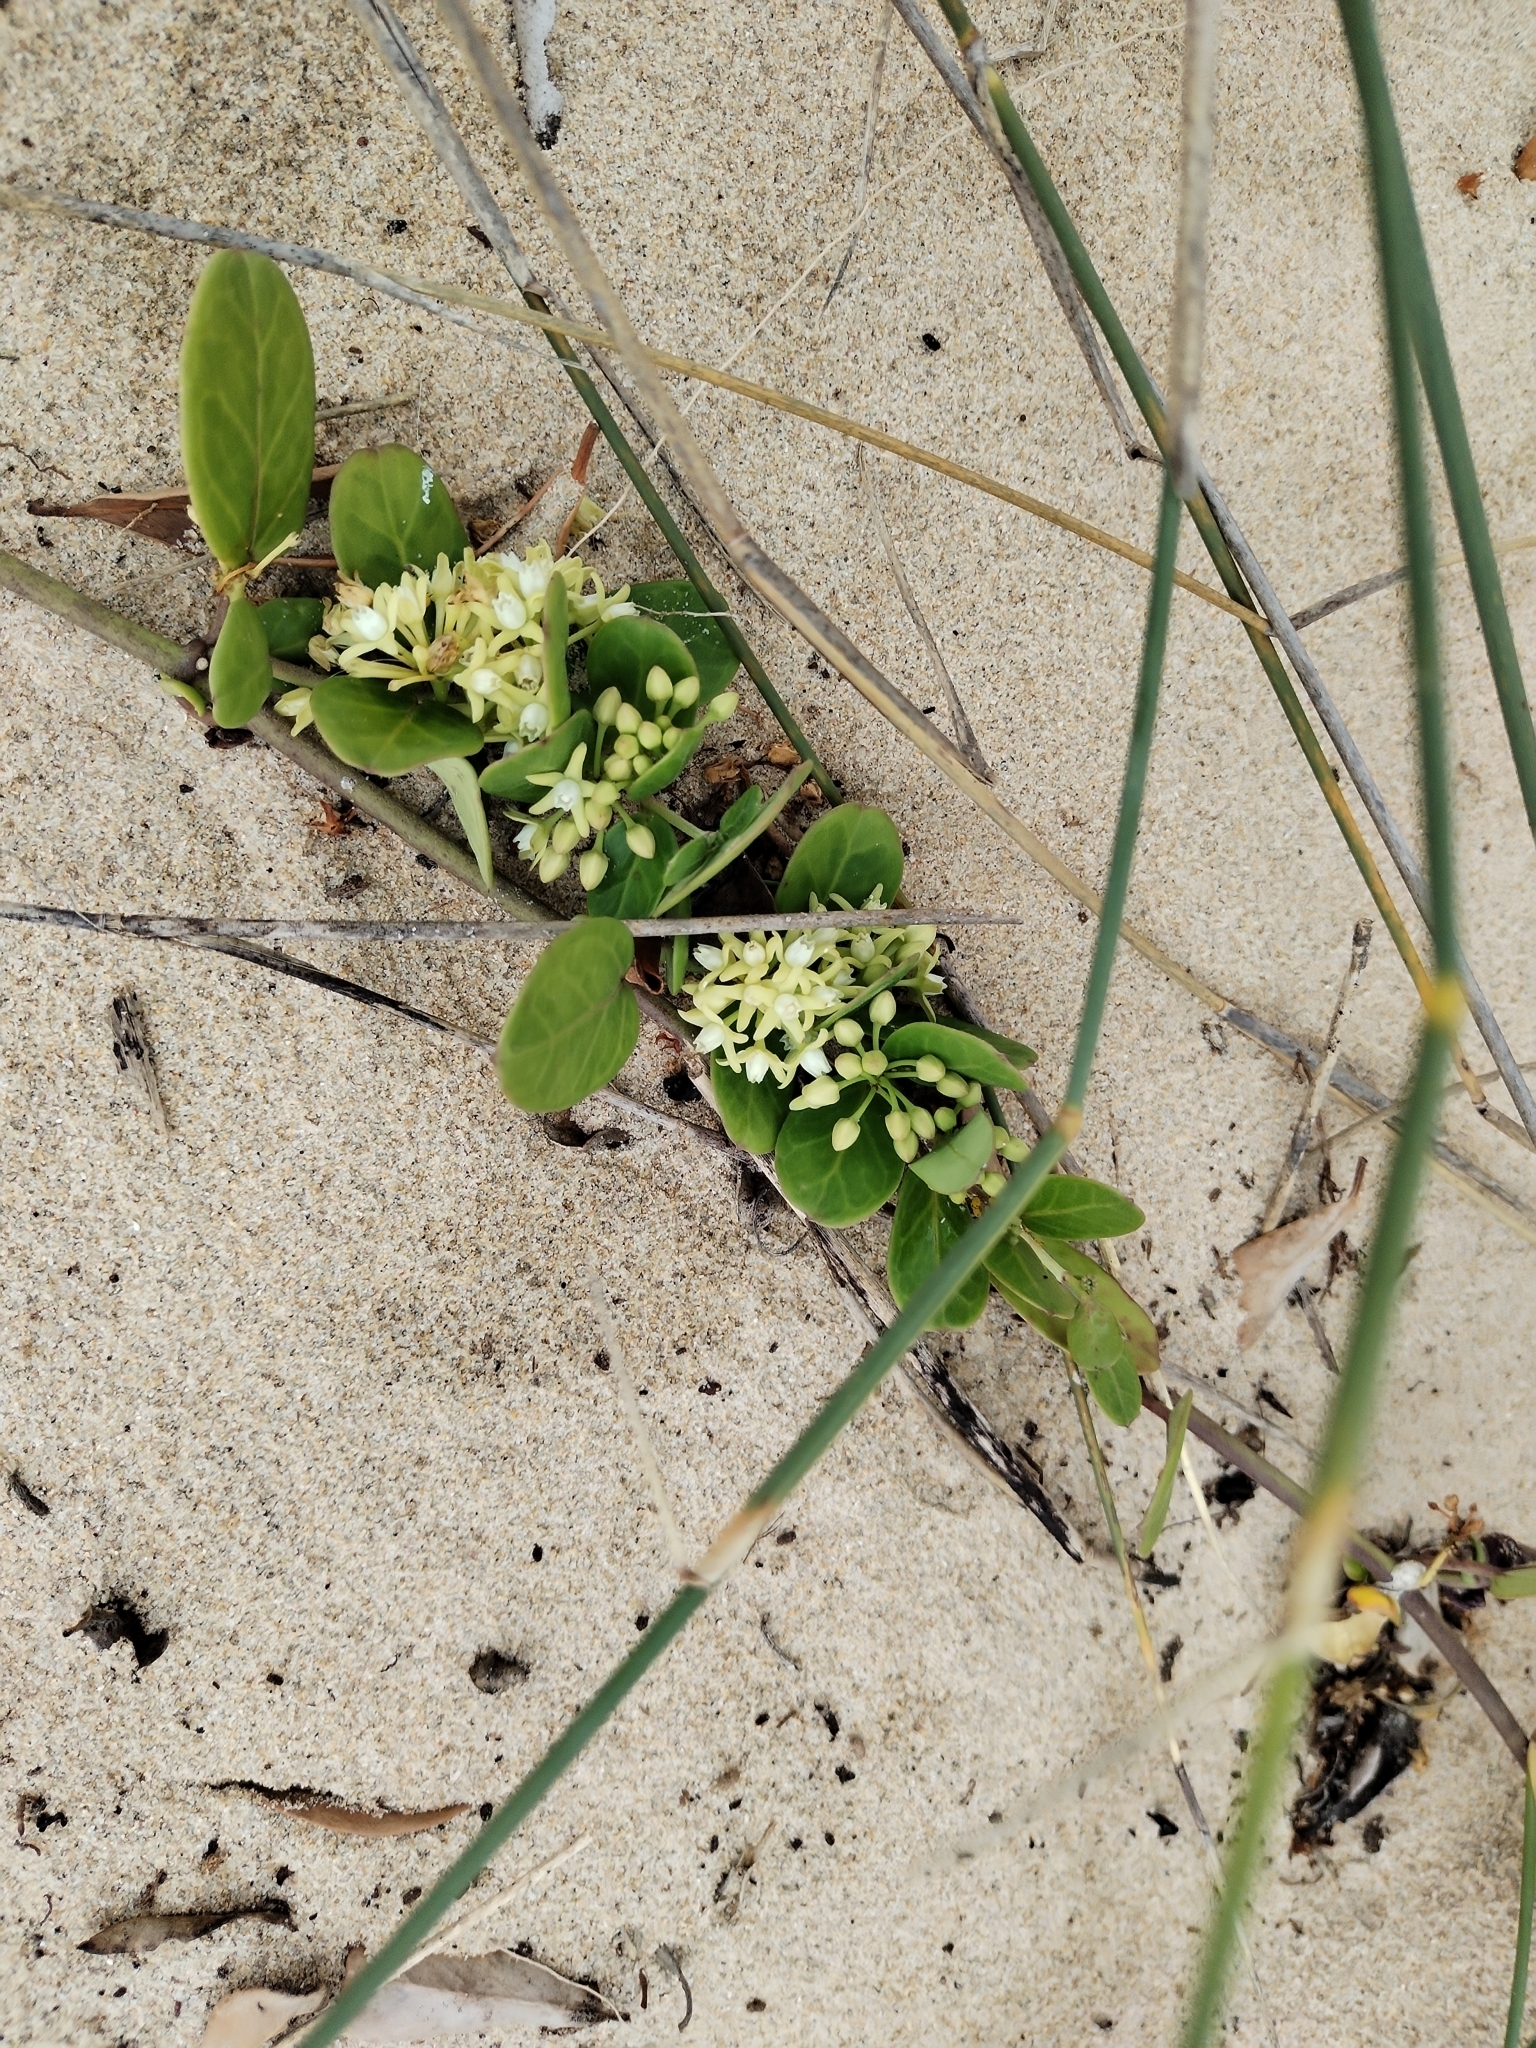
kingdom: Plantae
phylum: Tracheophyta
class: Magnoliopsida
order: Gentianales
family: Apocynaceae
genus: Cynanchum
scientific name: Cynanchum natalitium
